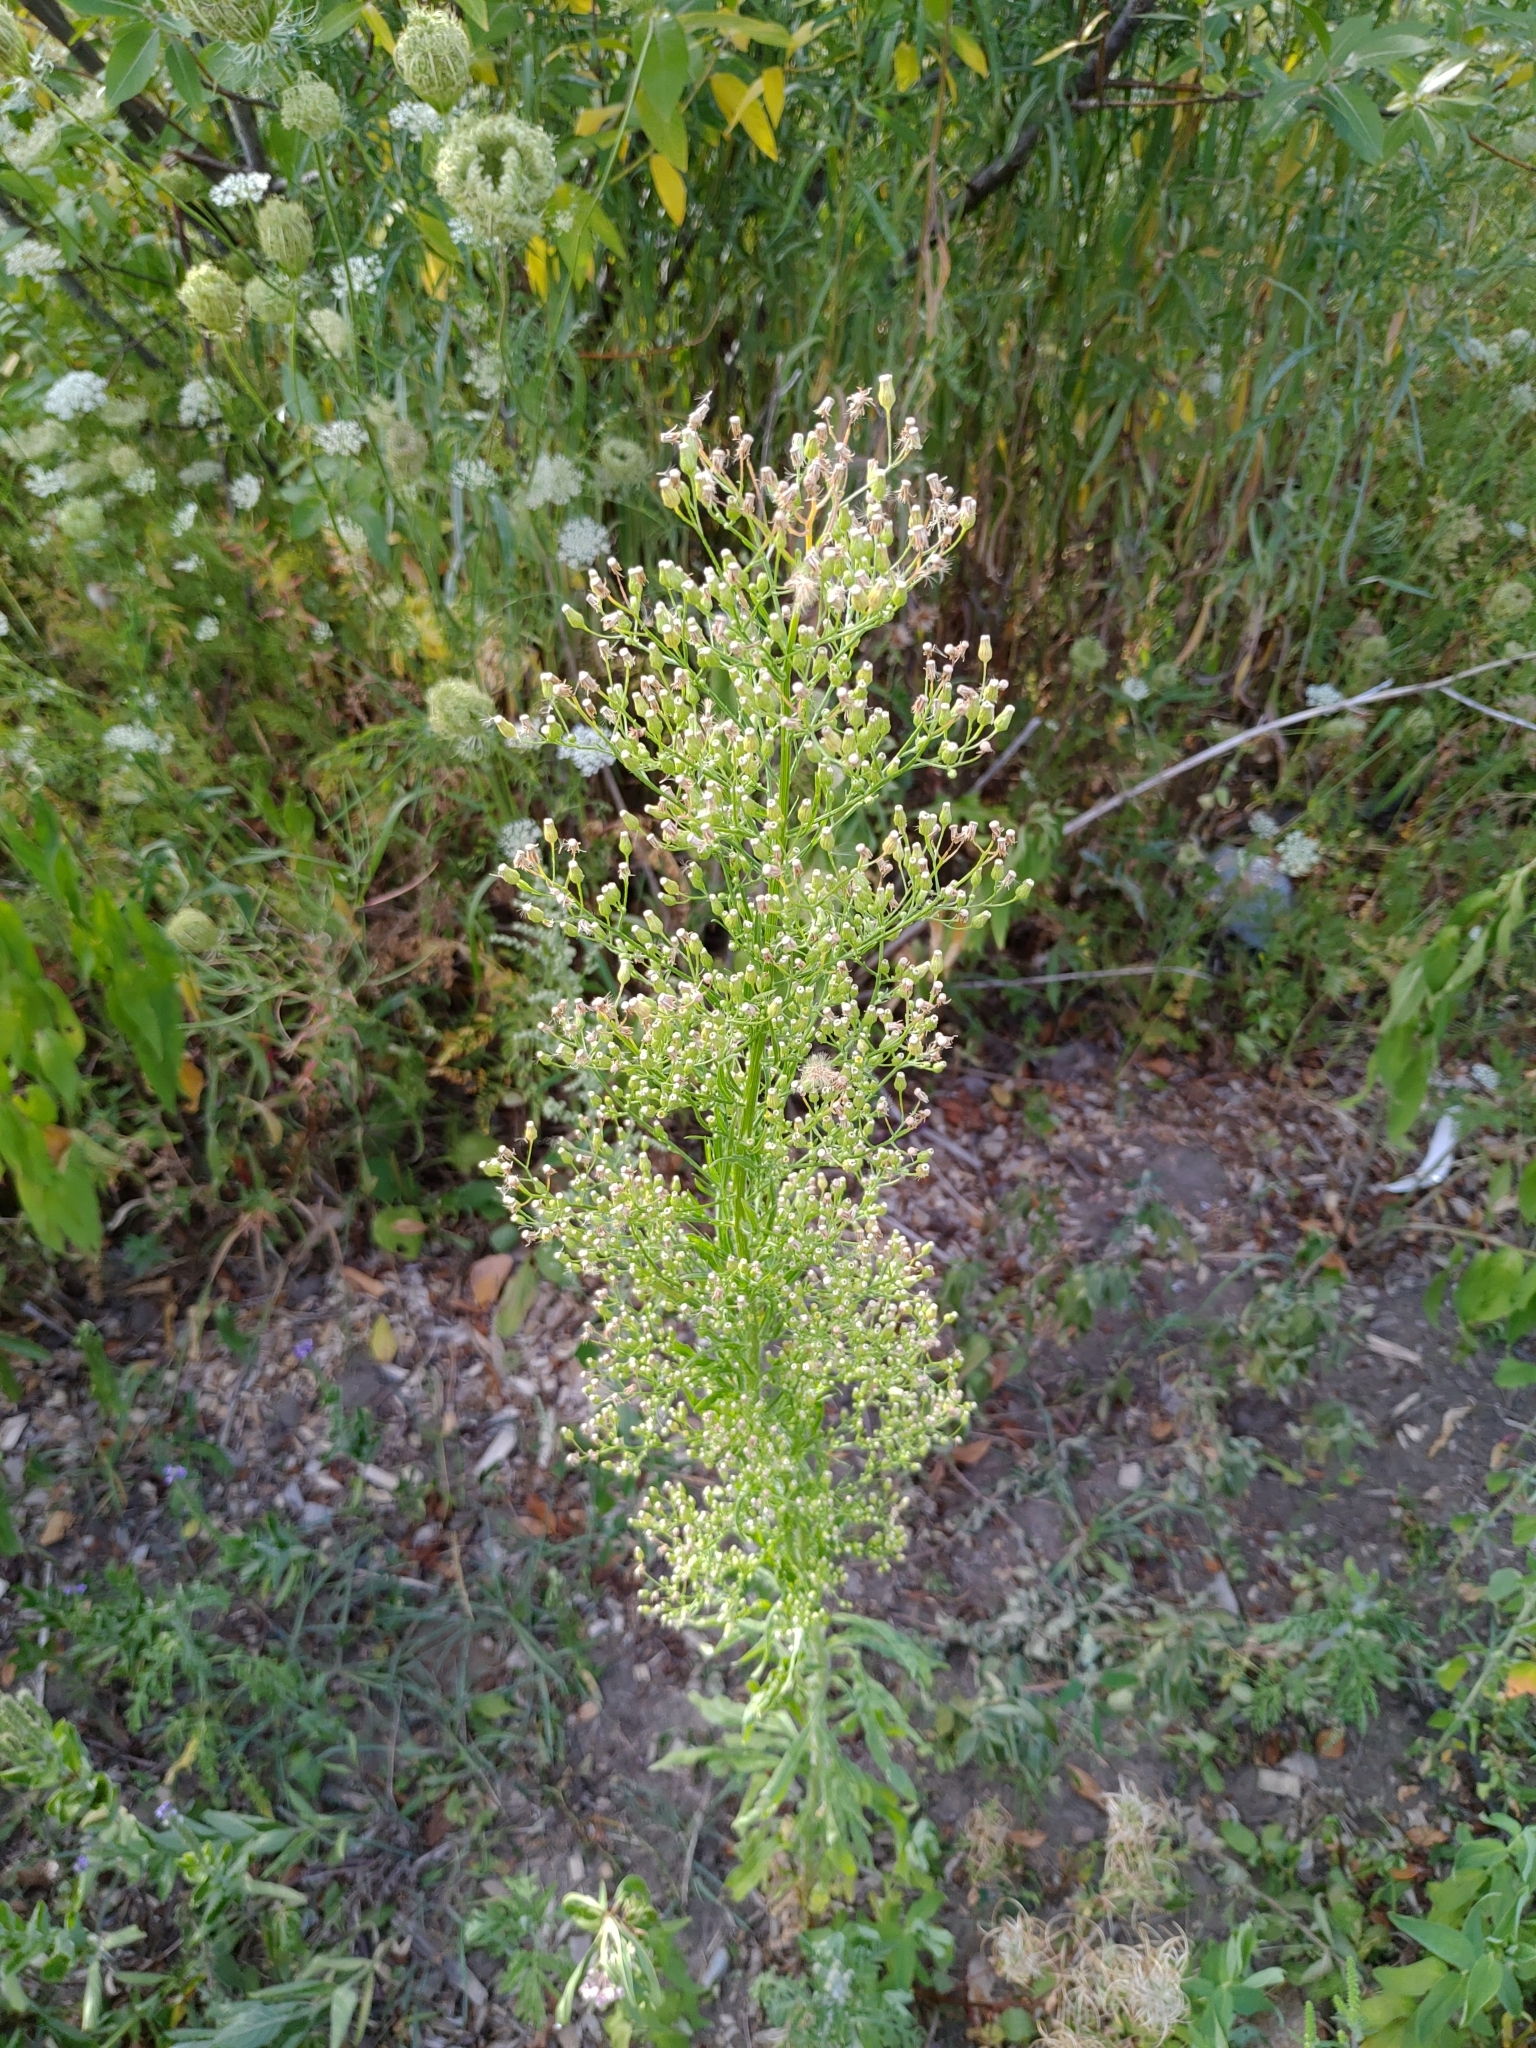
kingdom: Plantae
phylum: Tracheophyta
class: Magnoliopsida
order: Asterales
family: Asteraceae
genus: Erigeron
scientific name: Erigeron canadensis
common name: Canadian fleabane
